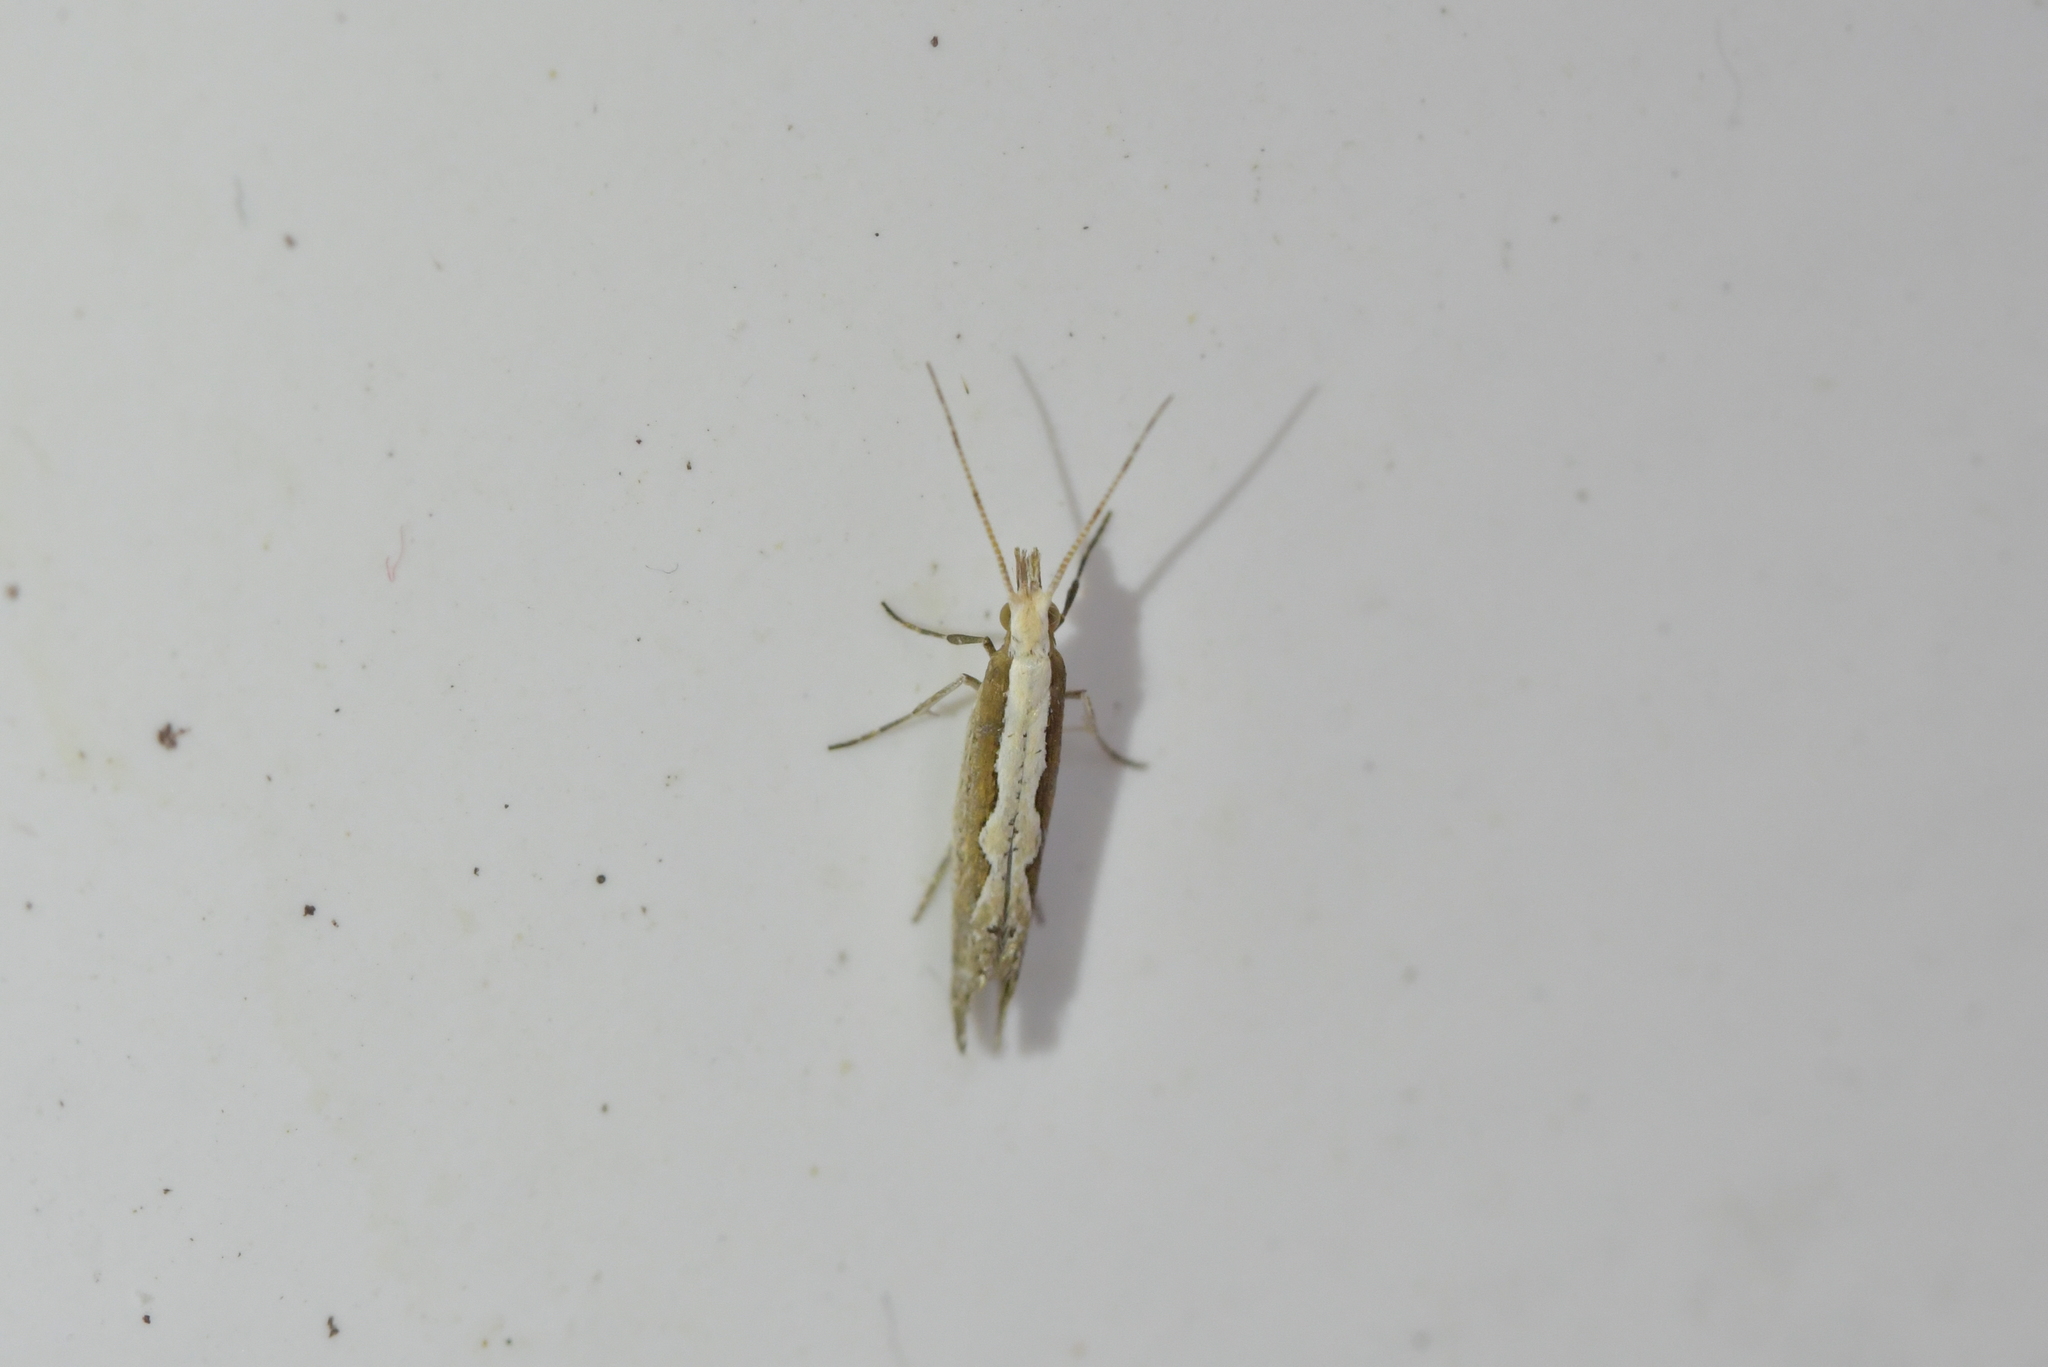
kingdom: Animalia
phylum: Arthropoda
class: Insecta
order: Lepidoptera
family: Plutellidae
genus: Plutella
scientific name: Plutella xylostella
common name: Diamond-back moth
